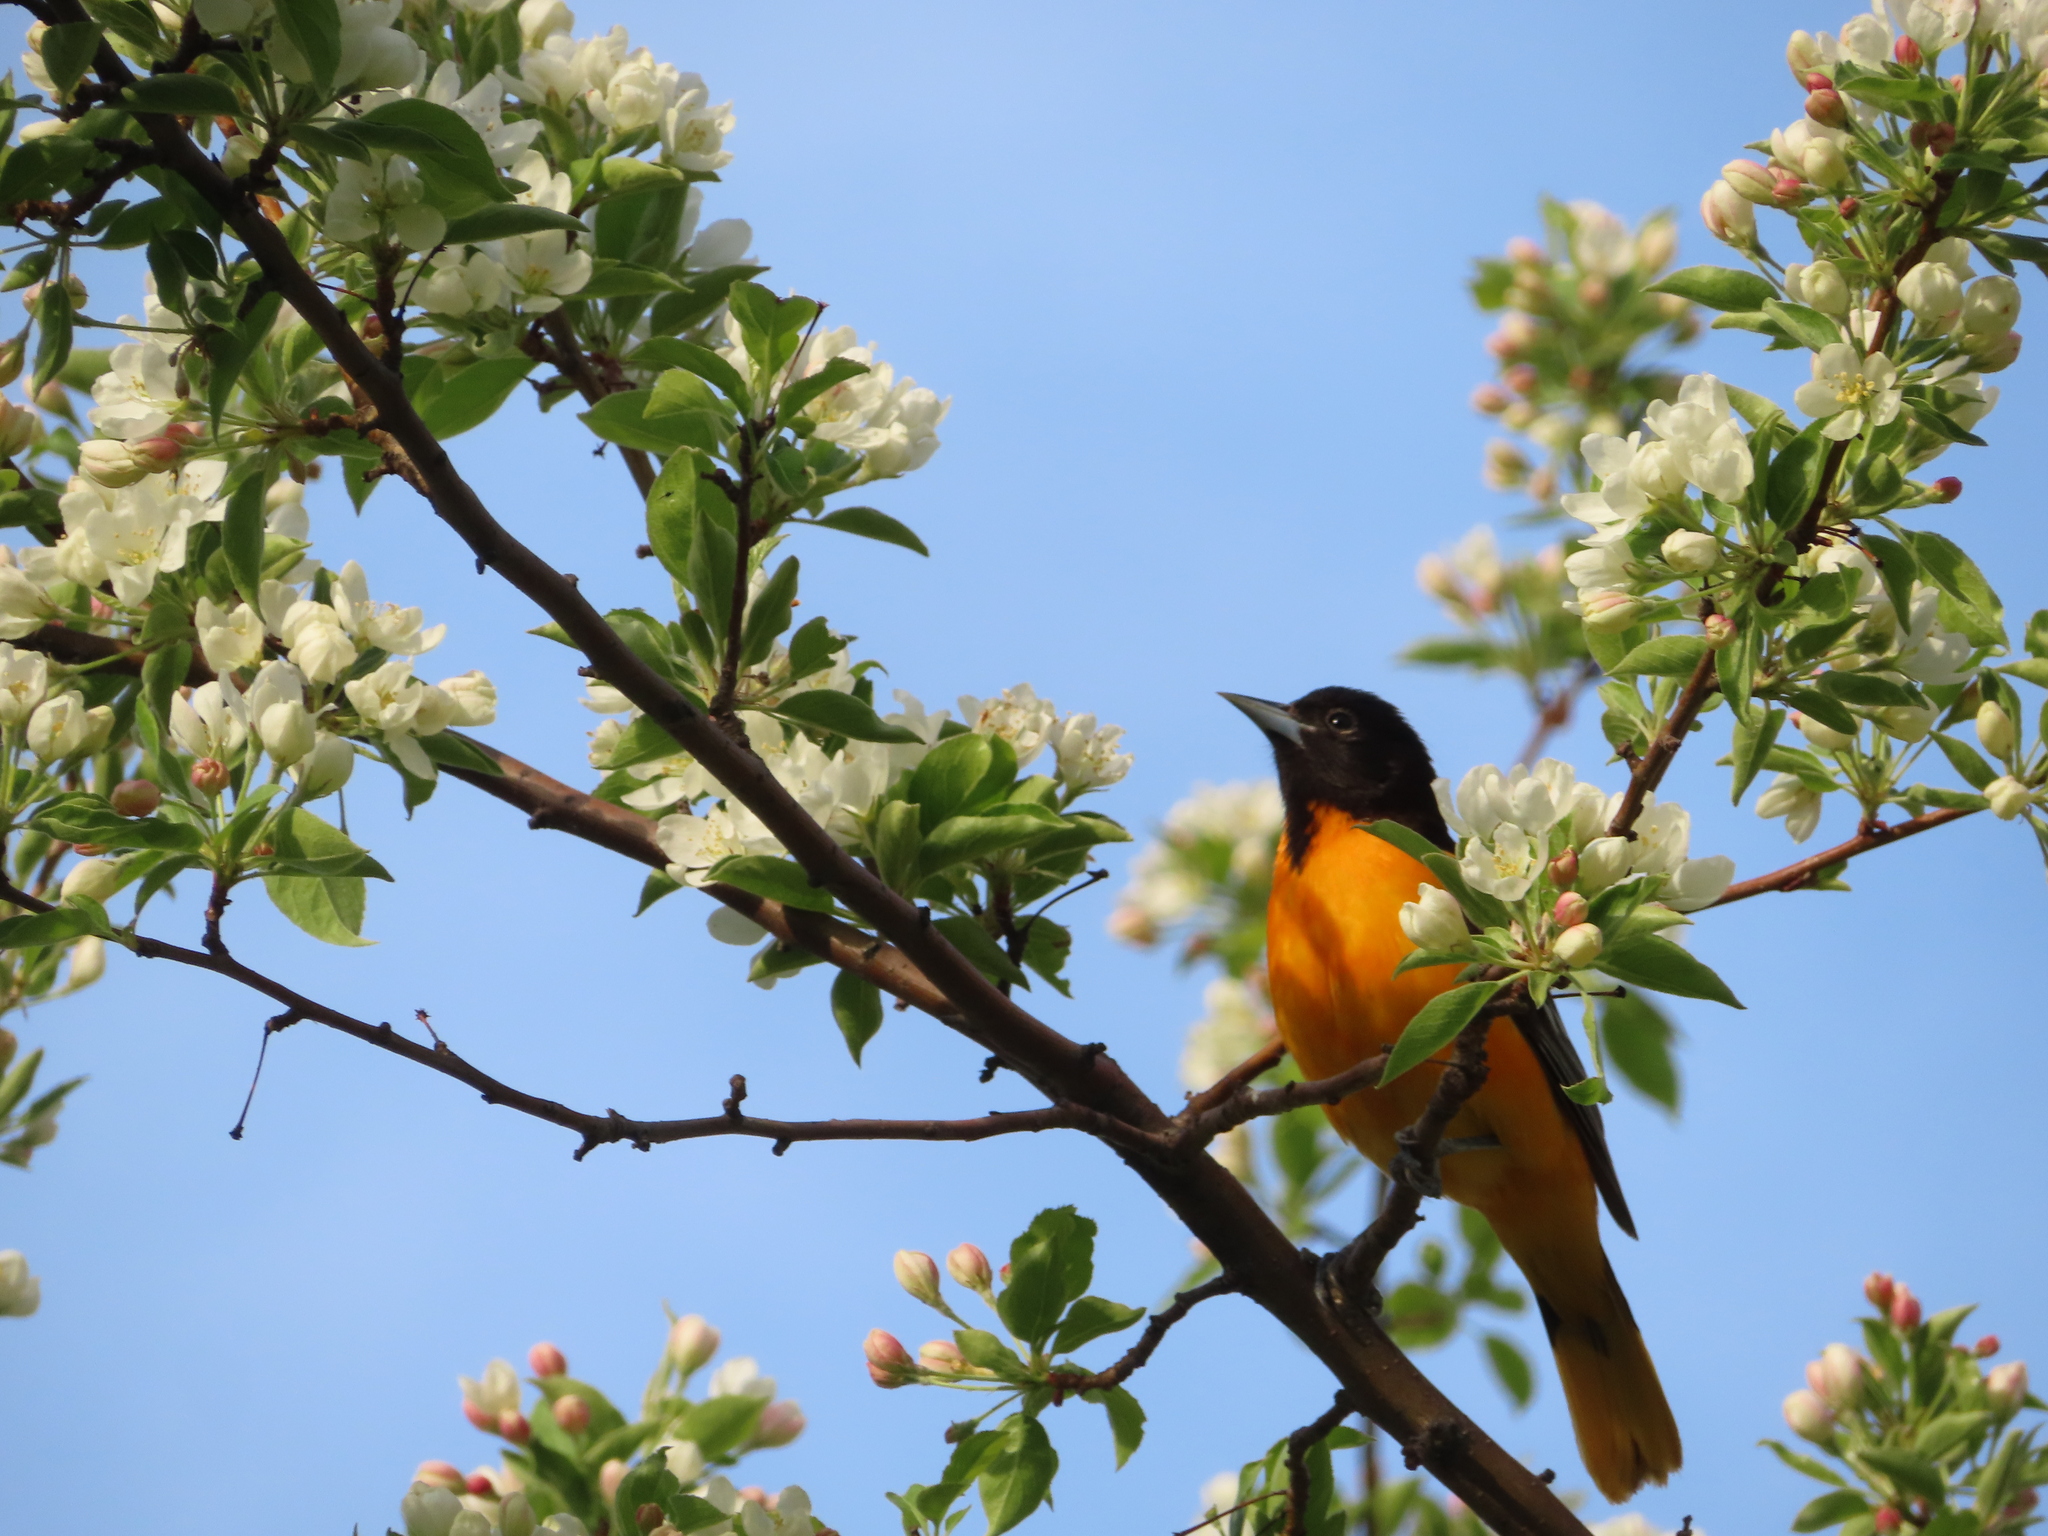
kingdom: Animalia
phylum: Chordata
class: Aves
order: Passeriformes
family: Icteridae
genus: Icterus
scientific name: Icterus galbula
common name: Baltimore oriole
